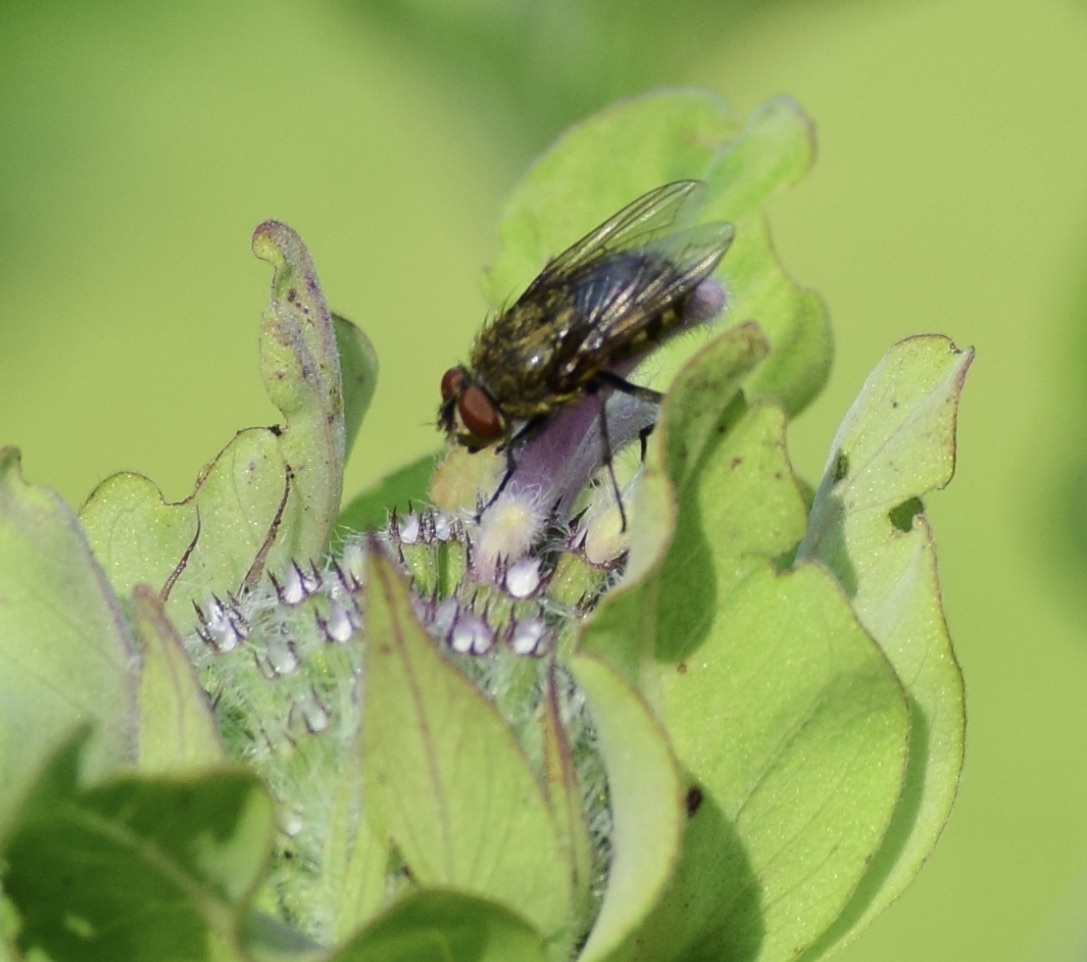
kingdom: Animalia
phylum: Arthropoda
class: Insecta
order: Diptera
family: Polleniidae
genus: Pollenia
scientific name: Pollenia
